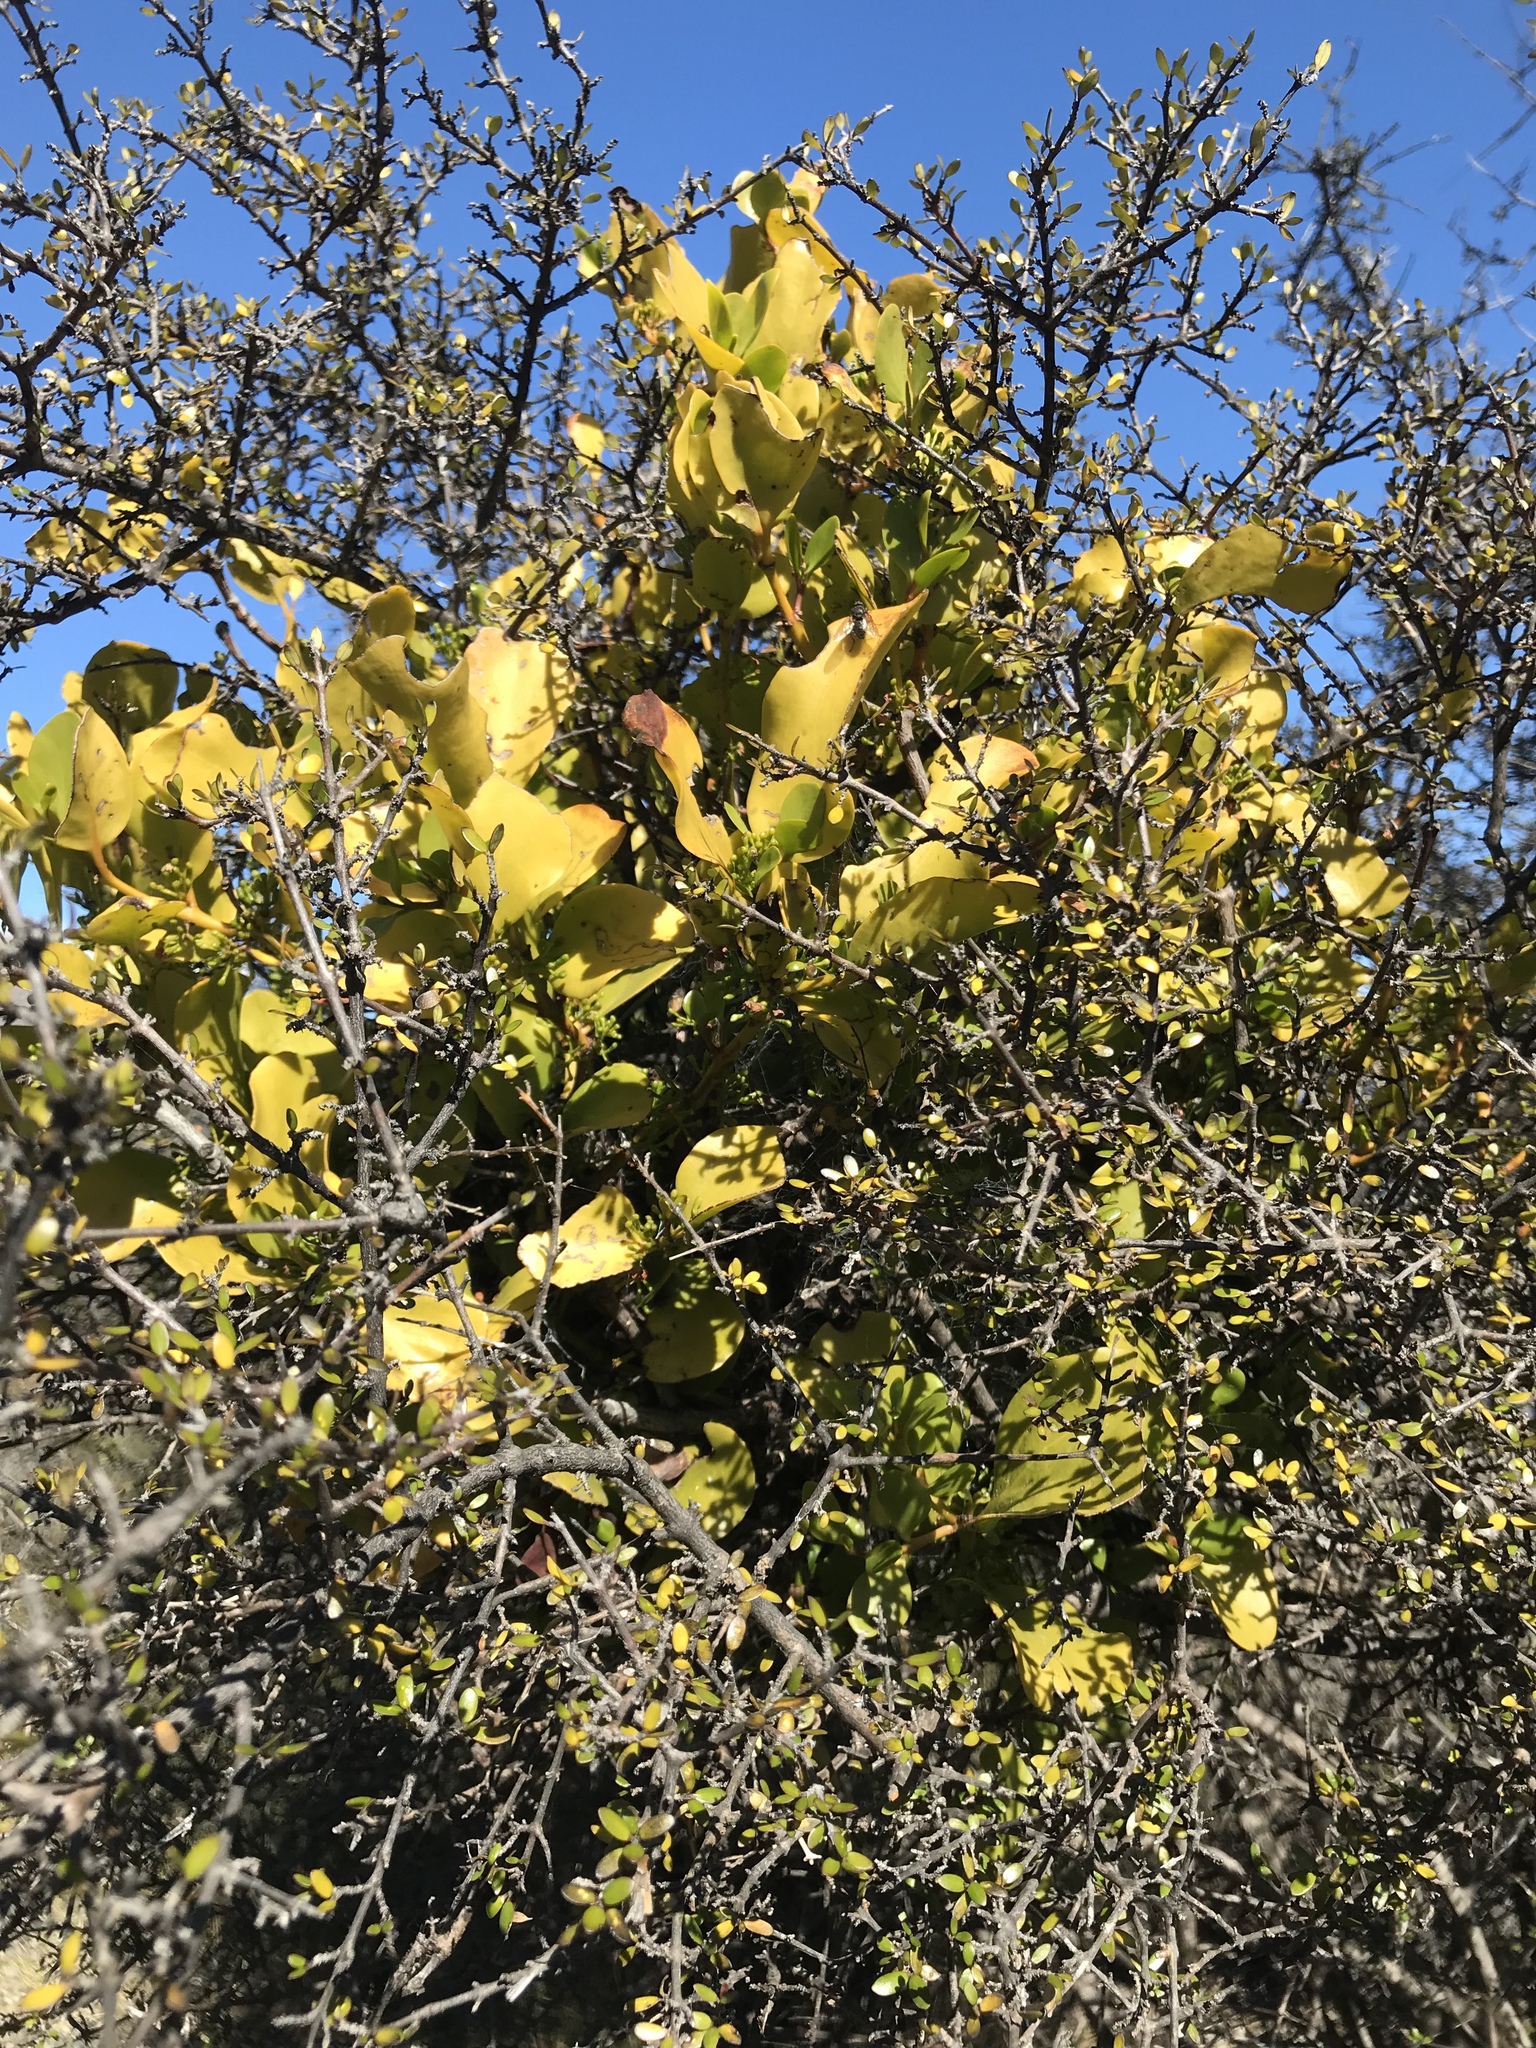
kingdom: Plantae
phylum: Tracheophyta
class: Magnoliopsida
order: Santalales
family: Loranthaceae
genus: Ileostylus
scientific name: Ileostylus micranthus
